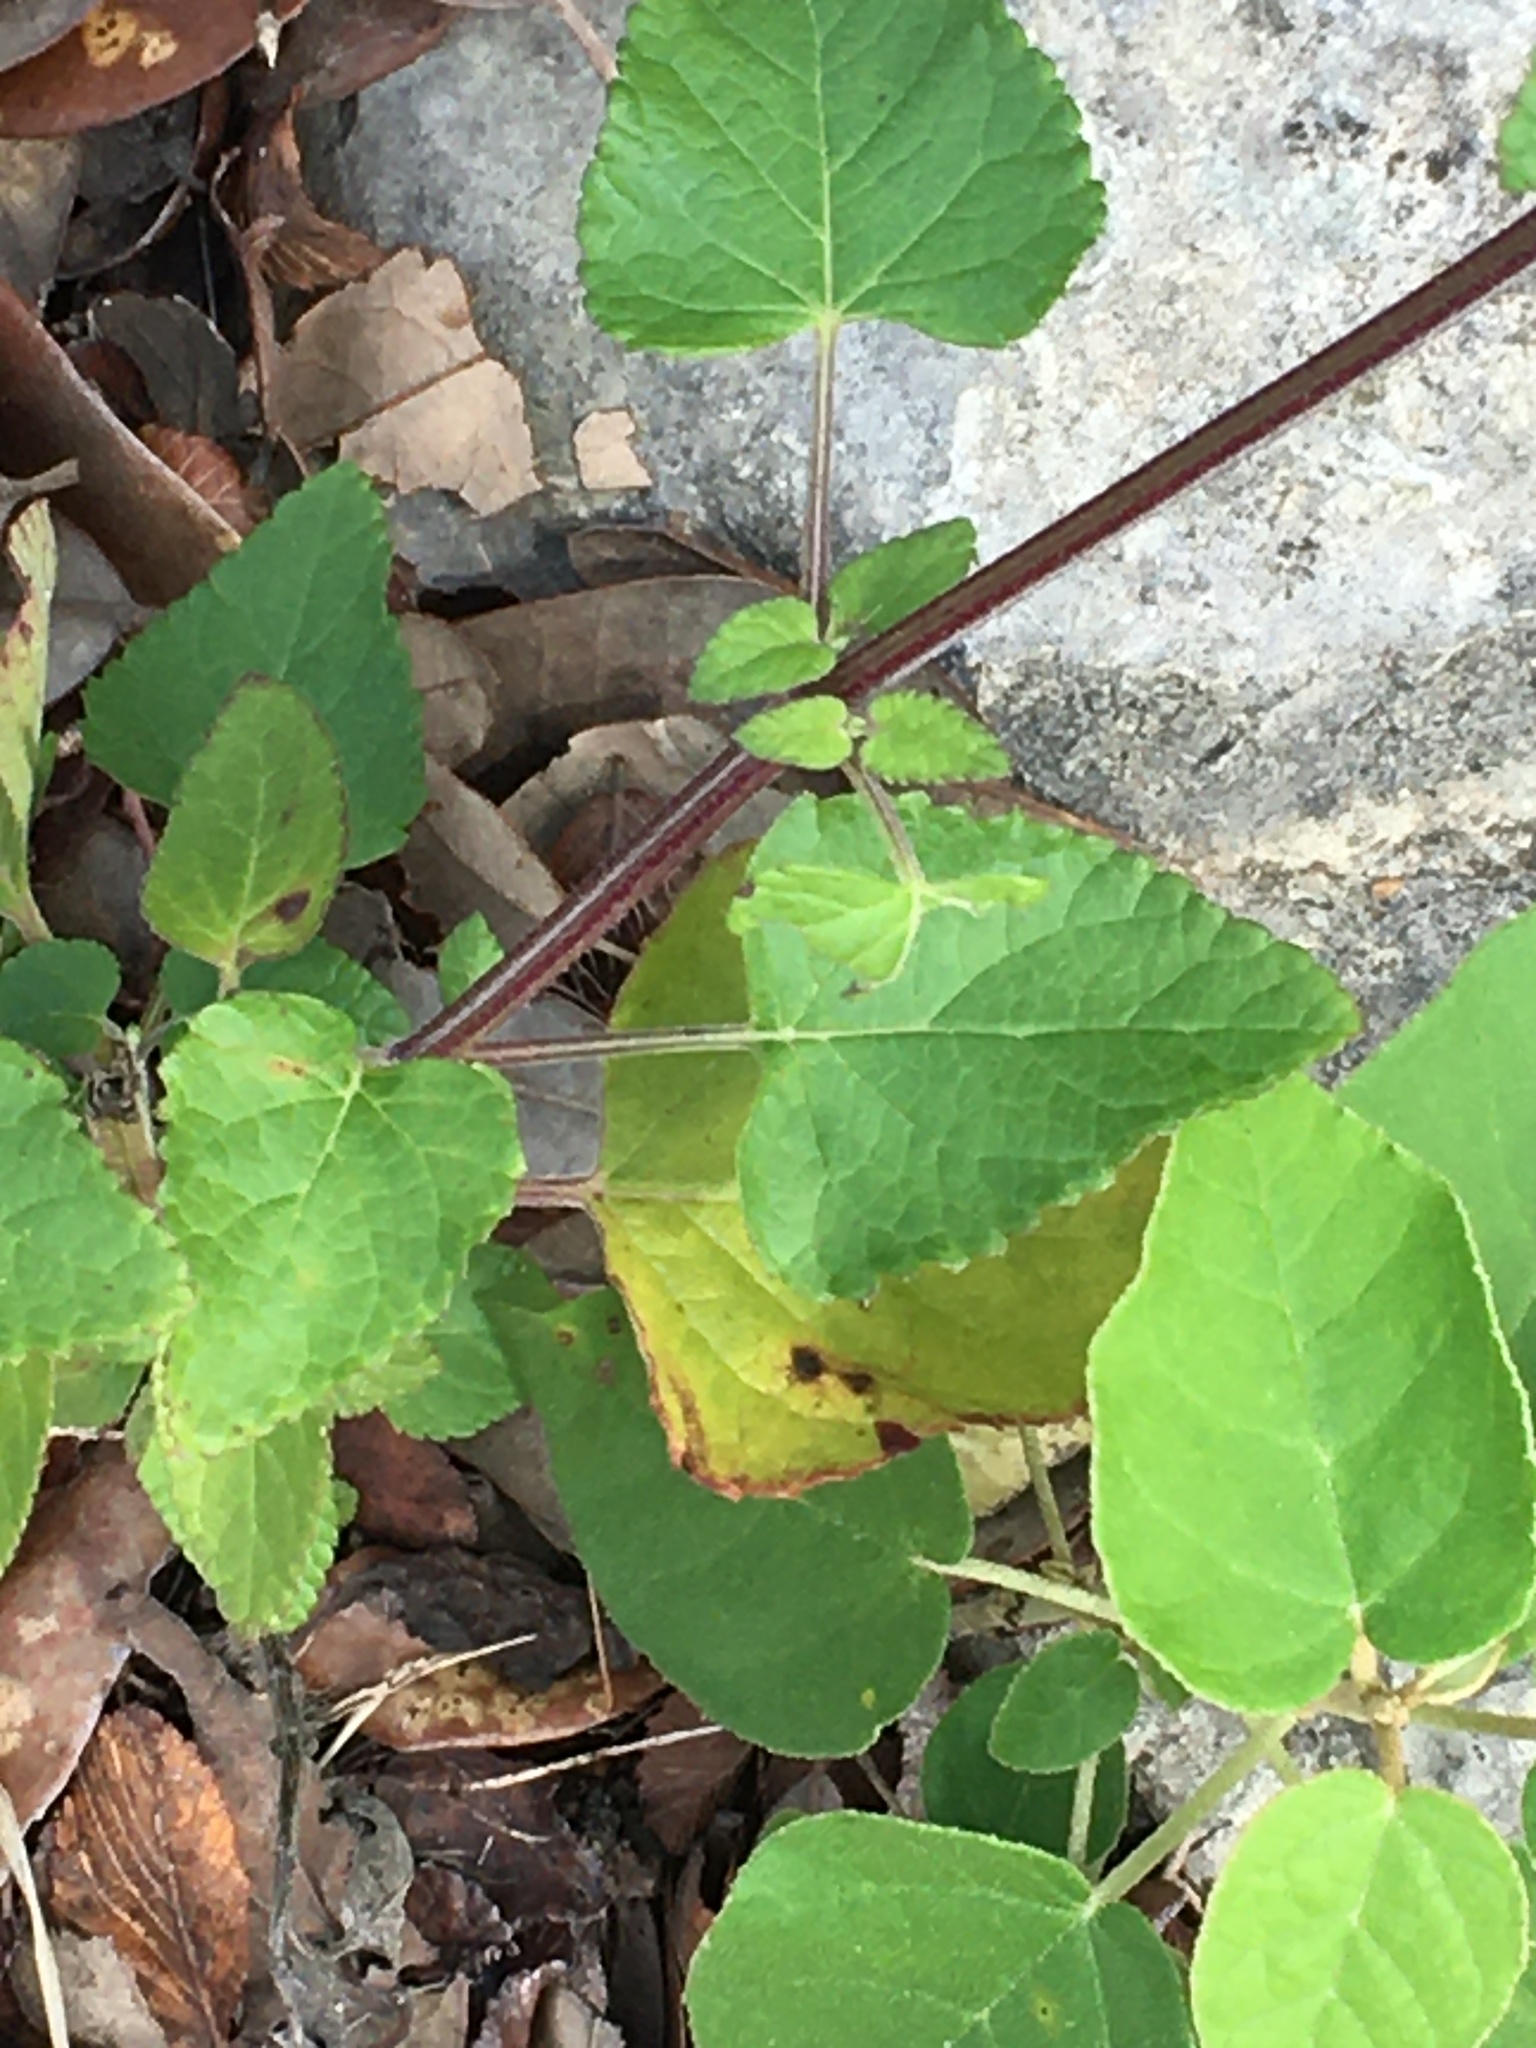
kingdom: Plantae
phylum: Tracheophyta
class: Magnoliopsida
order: Lamiales
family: Lamiaceae
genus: Salvia
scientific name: Salvia coccinea
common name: Blood sage
